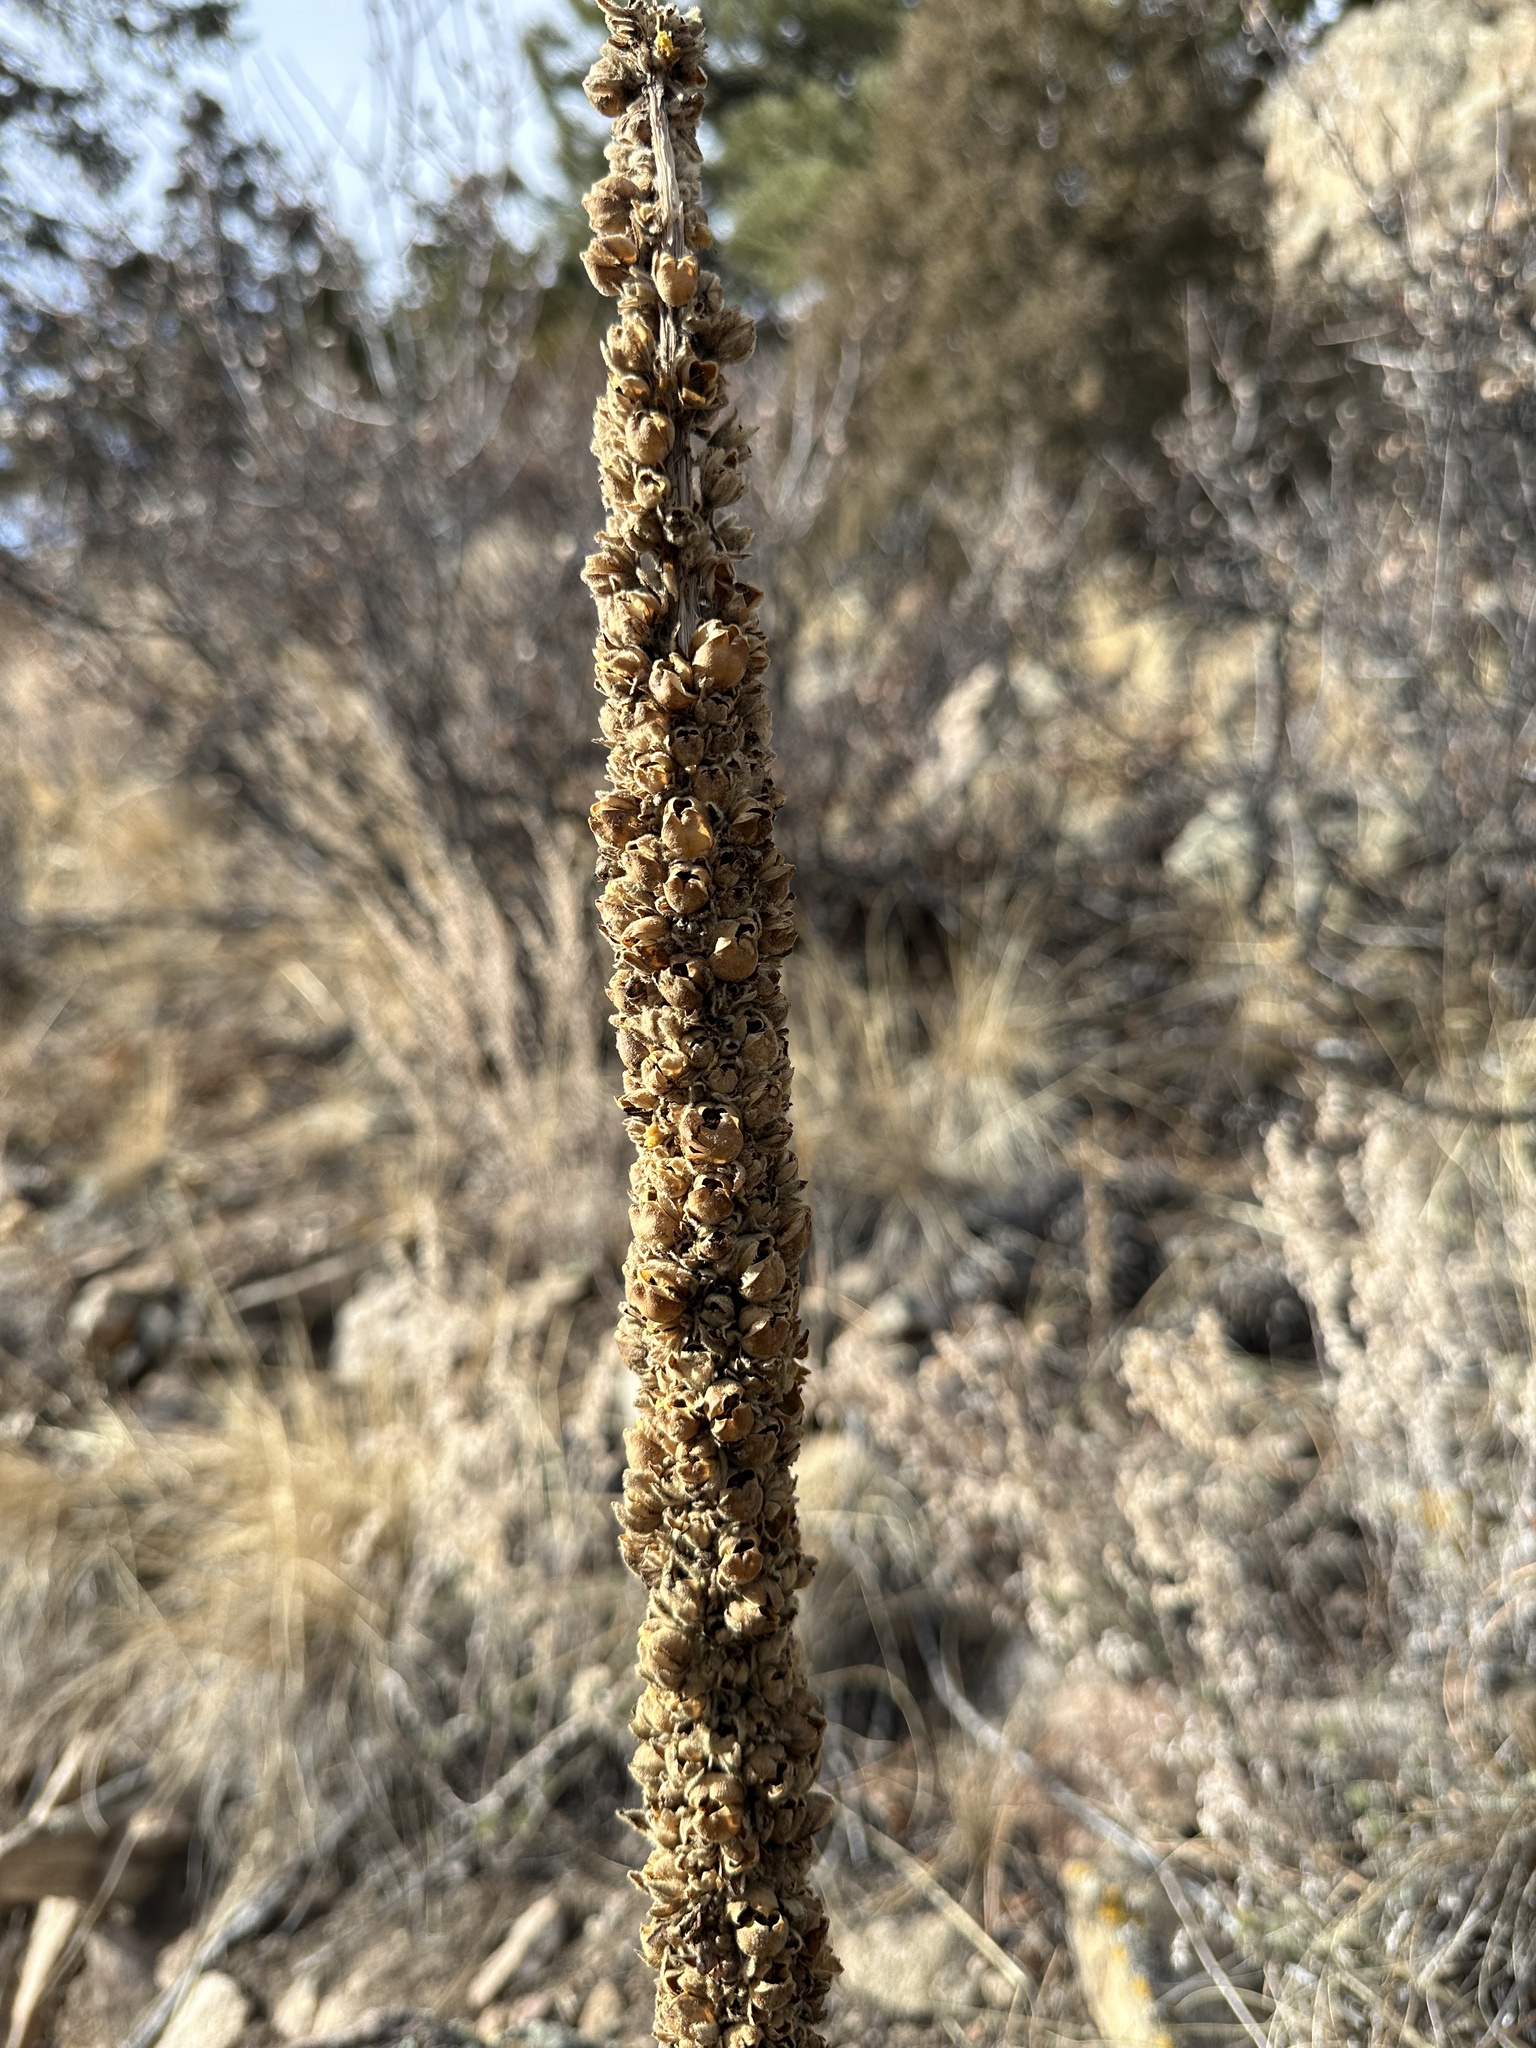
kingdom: Plantae
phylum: Tracheophyta
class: Magnoliopsida
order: Lamiales
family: Scrophulariaceae
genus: Verbascum
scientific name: Verbascum thapsus
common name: Common mullein
